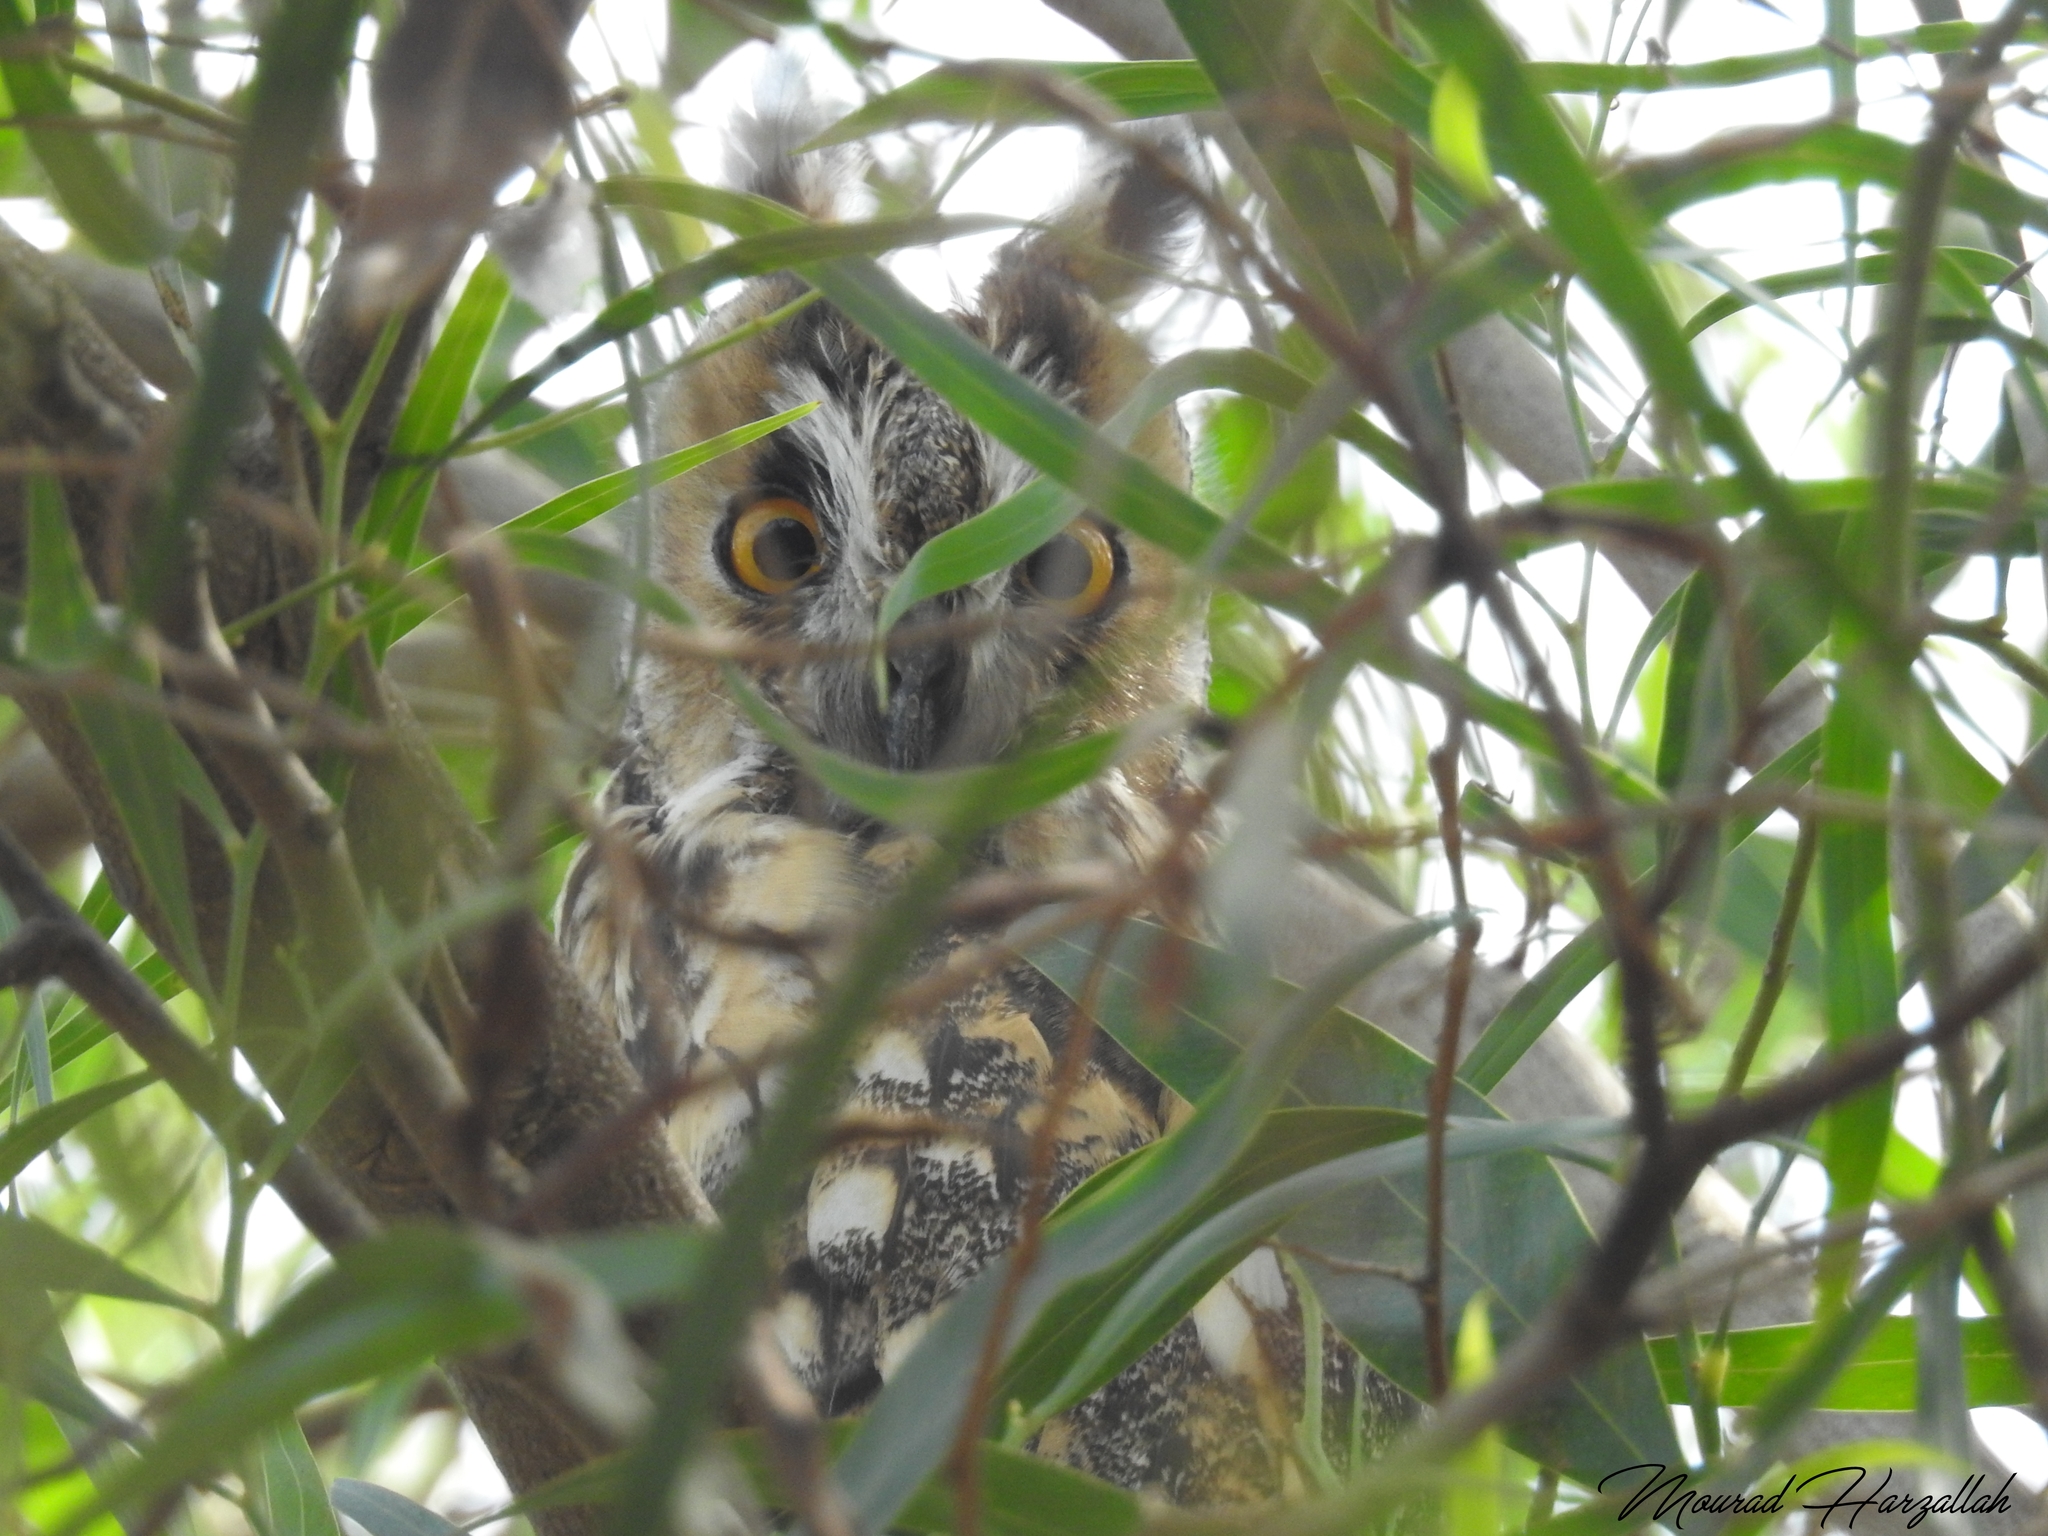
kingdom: Animalia
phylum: Chordata
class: Aves
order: Strigiformes
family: Strigidae
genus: Asio
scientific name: Asio otus
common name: Long-eared owl
